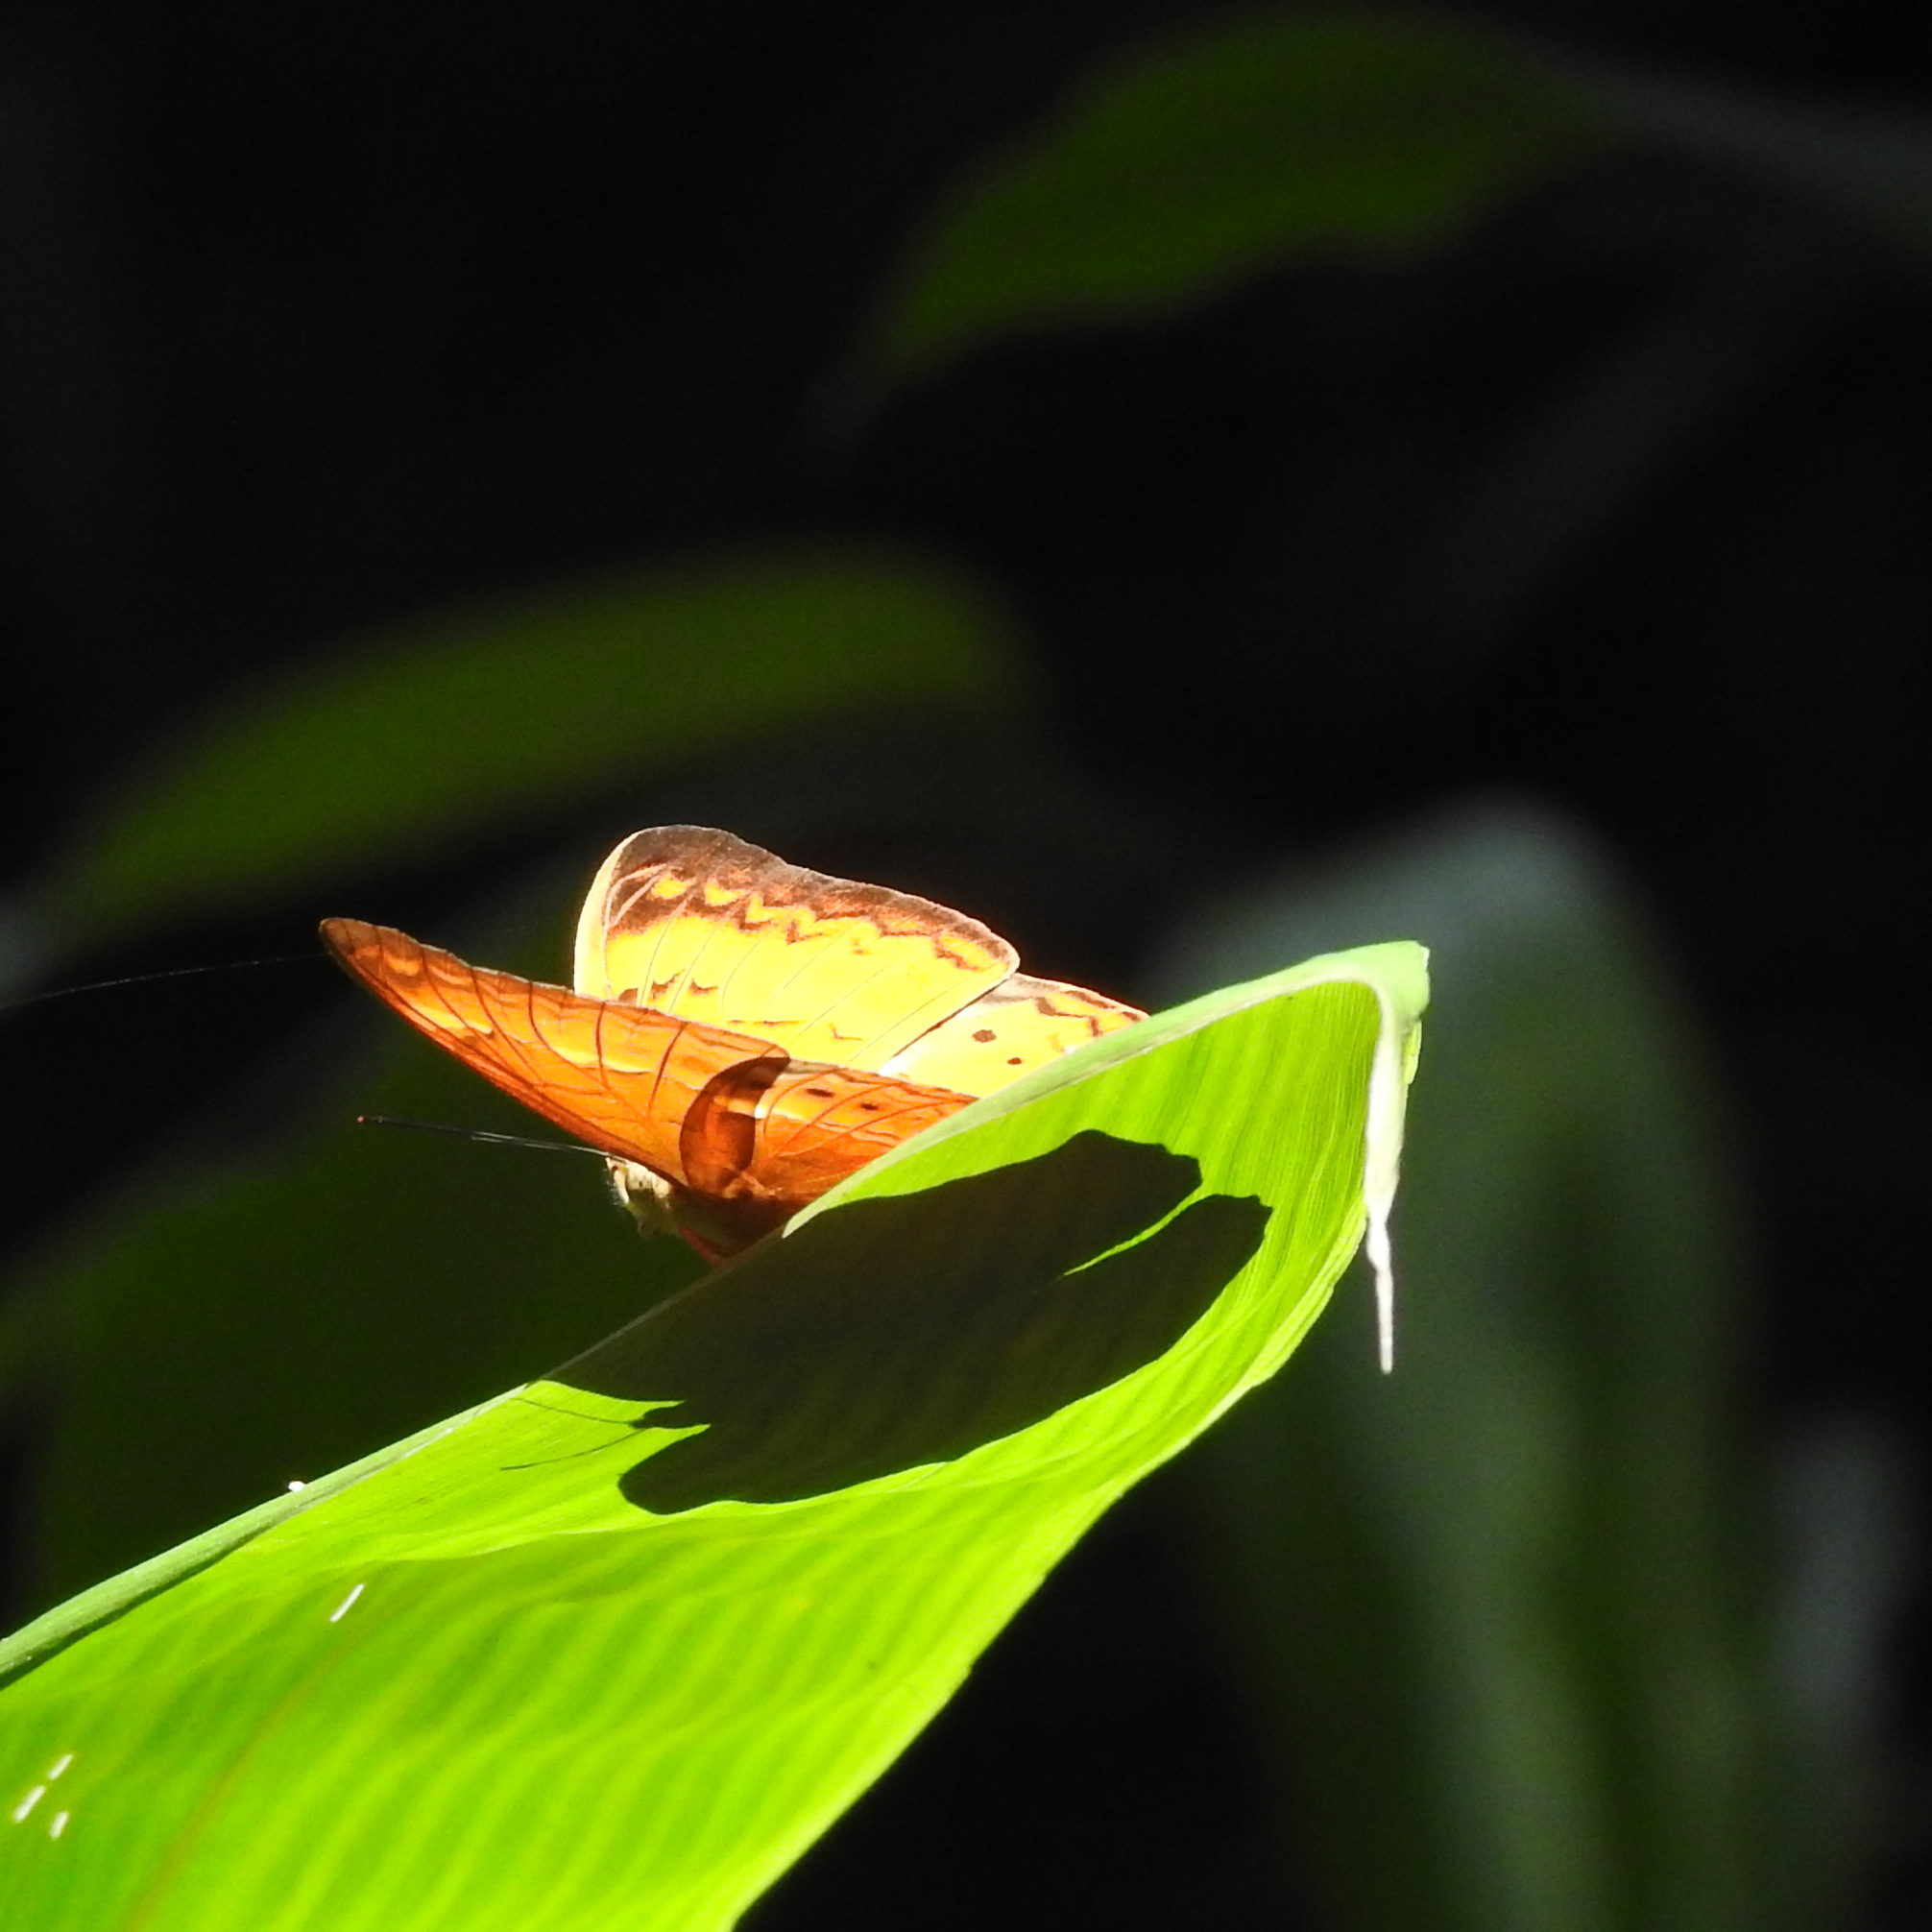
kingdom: Animalia
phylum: Arthropoda
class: Insecta
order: Lepidoptera
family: Nymphalidae
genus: Cirrochroa
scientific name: Cirrochroa thais
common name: Tamil yeoman
